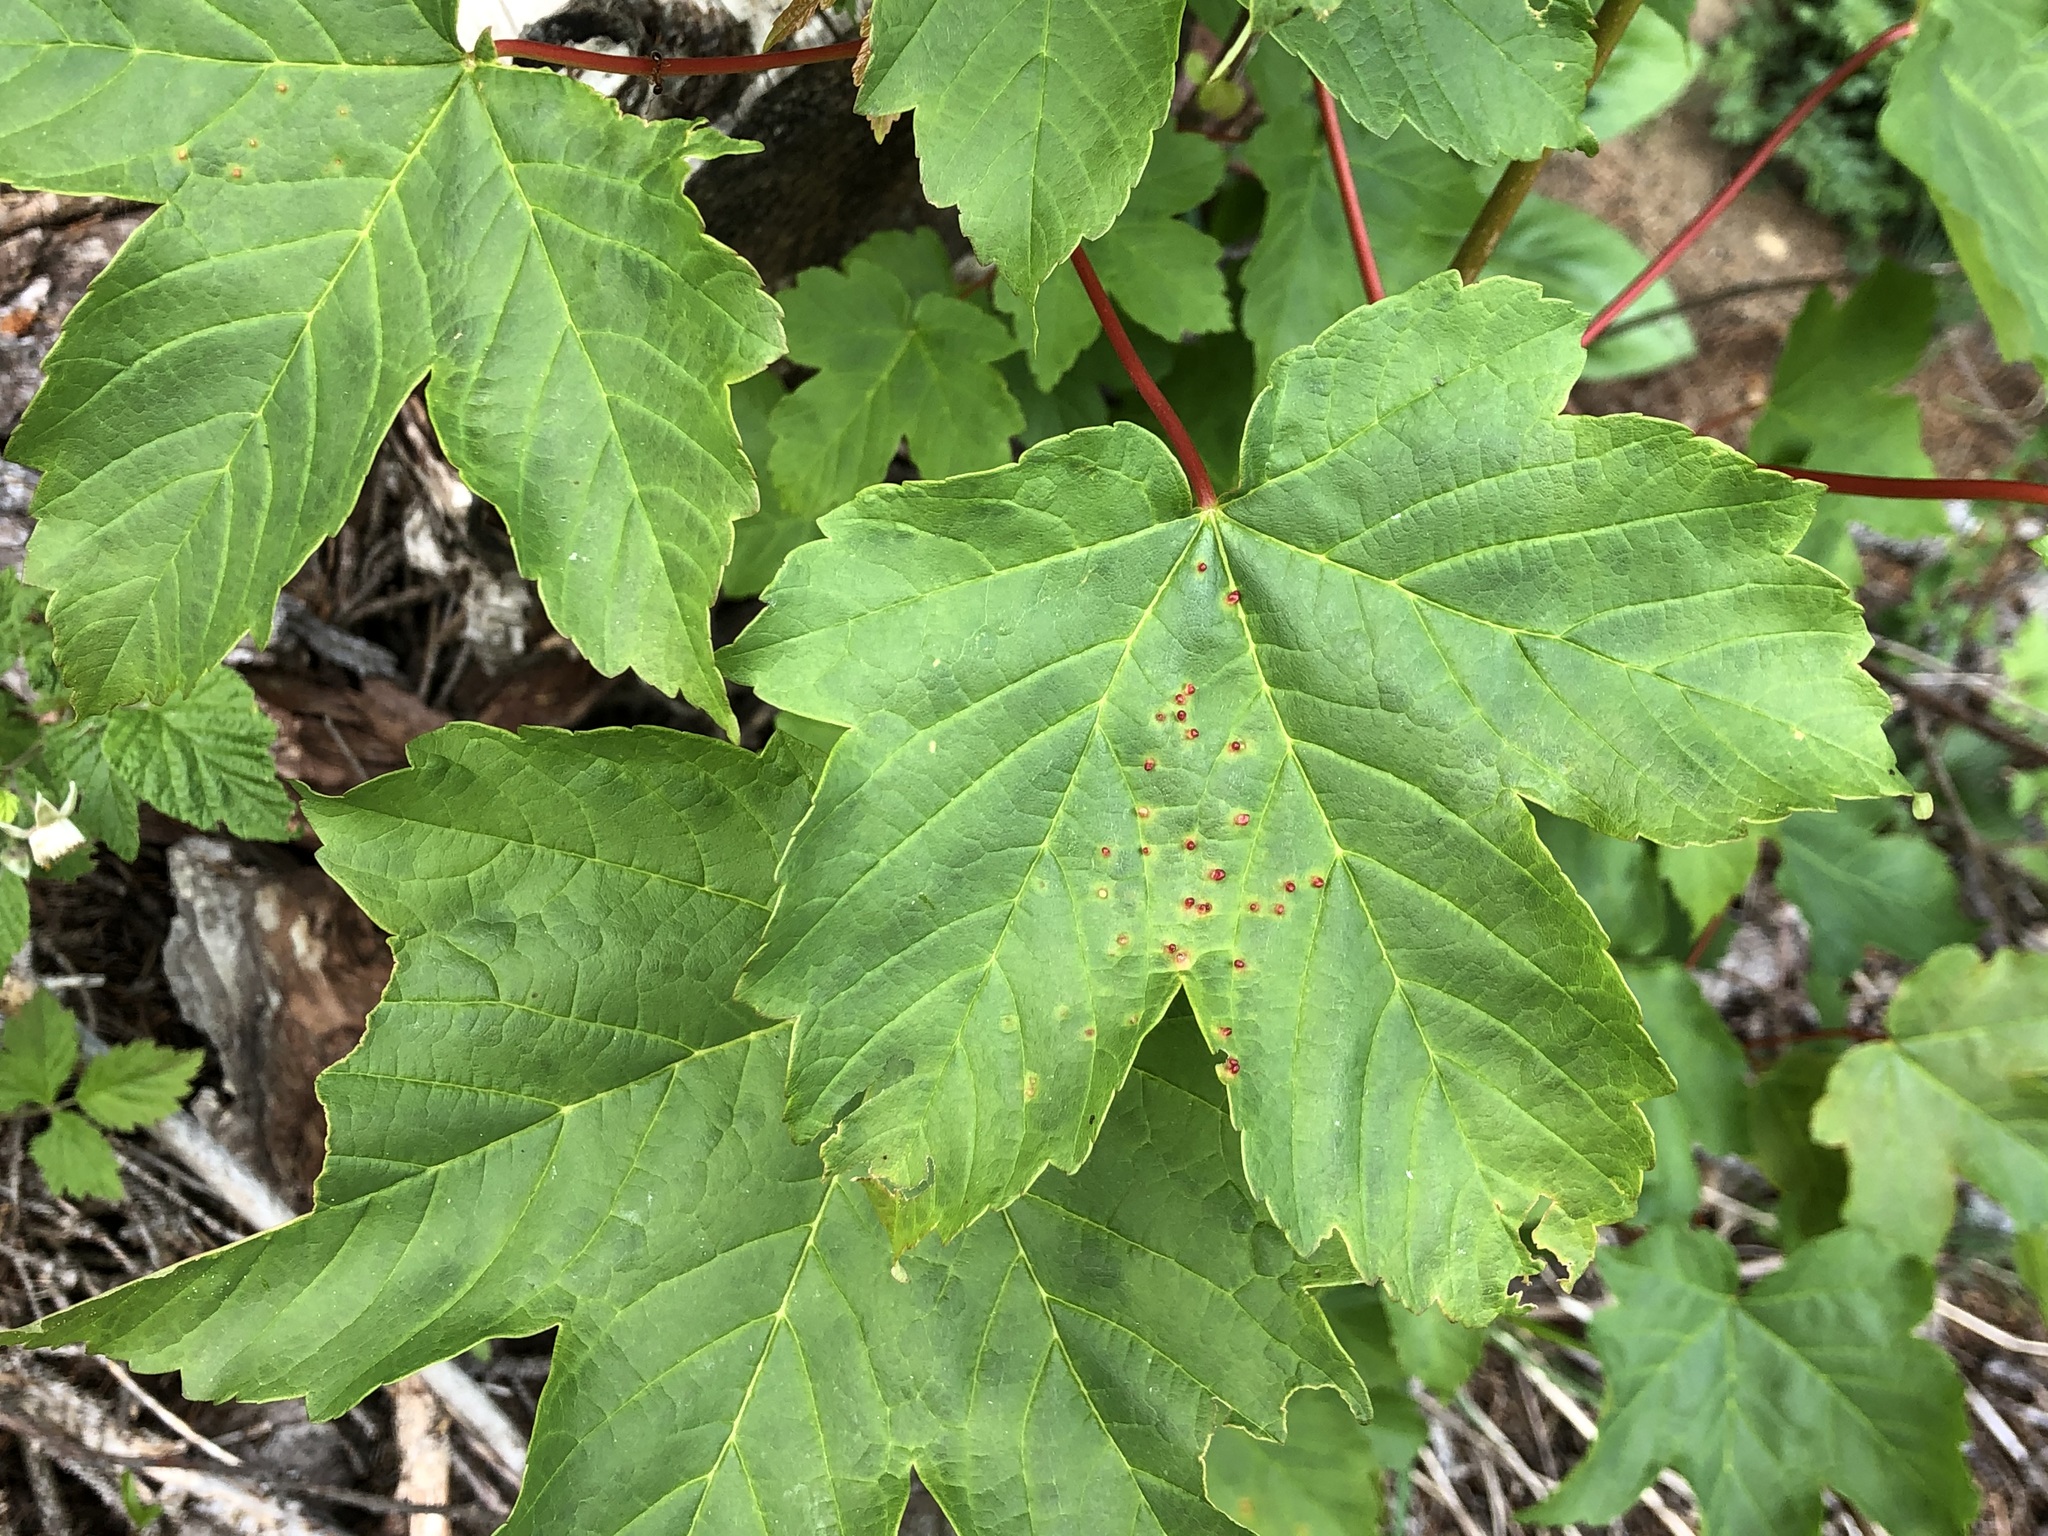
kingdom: Plantae
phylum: Tracheophyta
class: Magnoliopsida
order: Sapindales
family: Sapindaceae
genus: Acer
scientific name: Acer pseudoplatanus
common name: Sycamore
